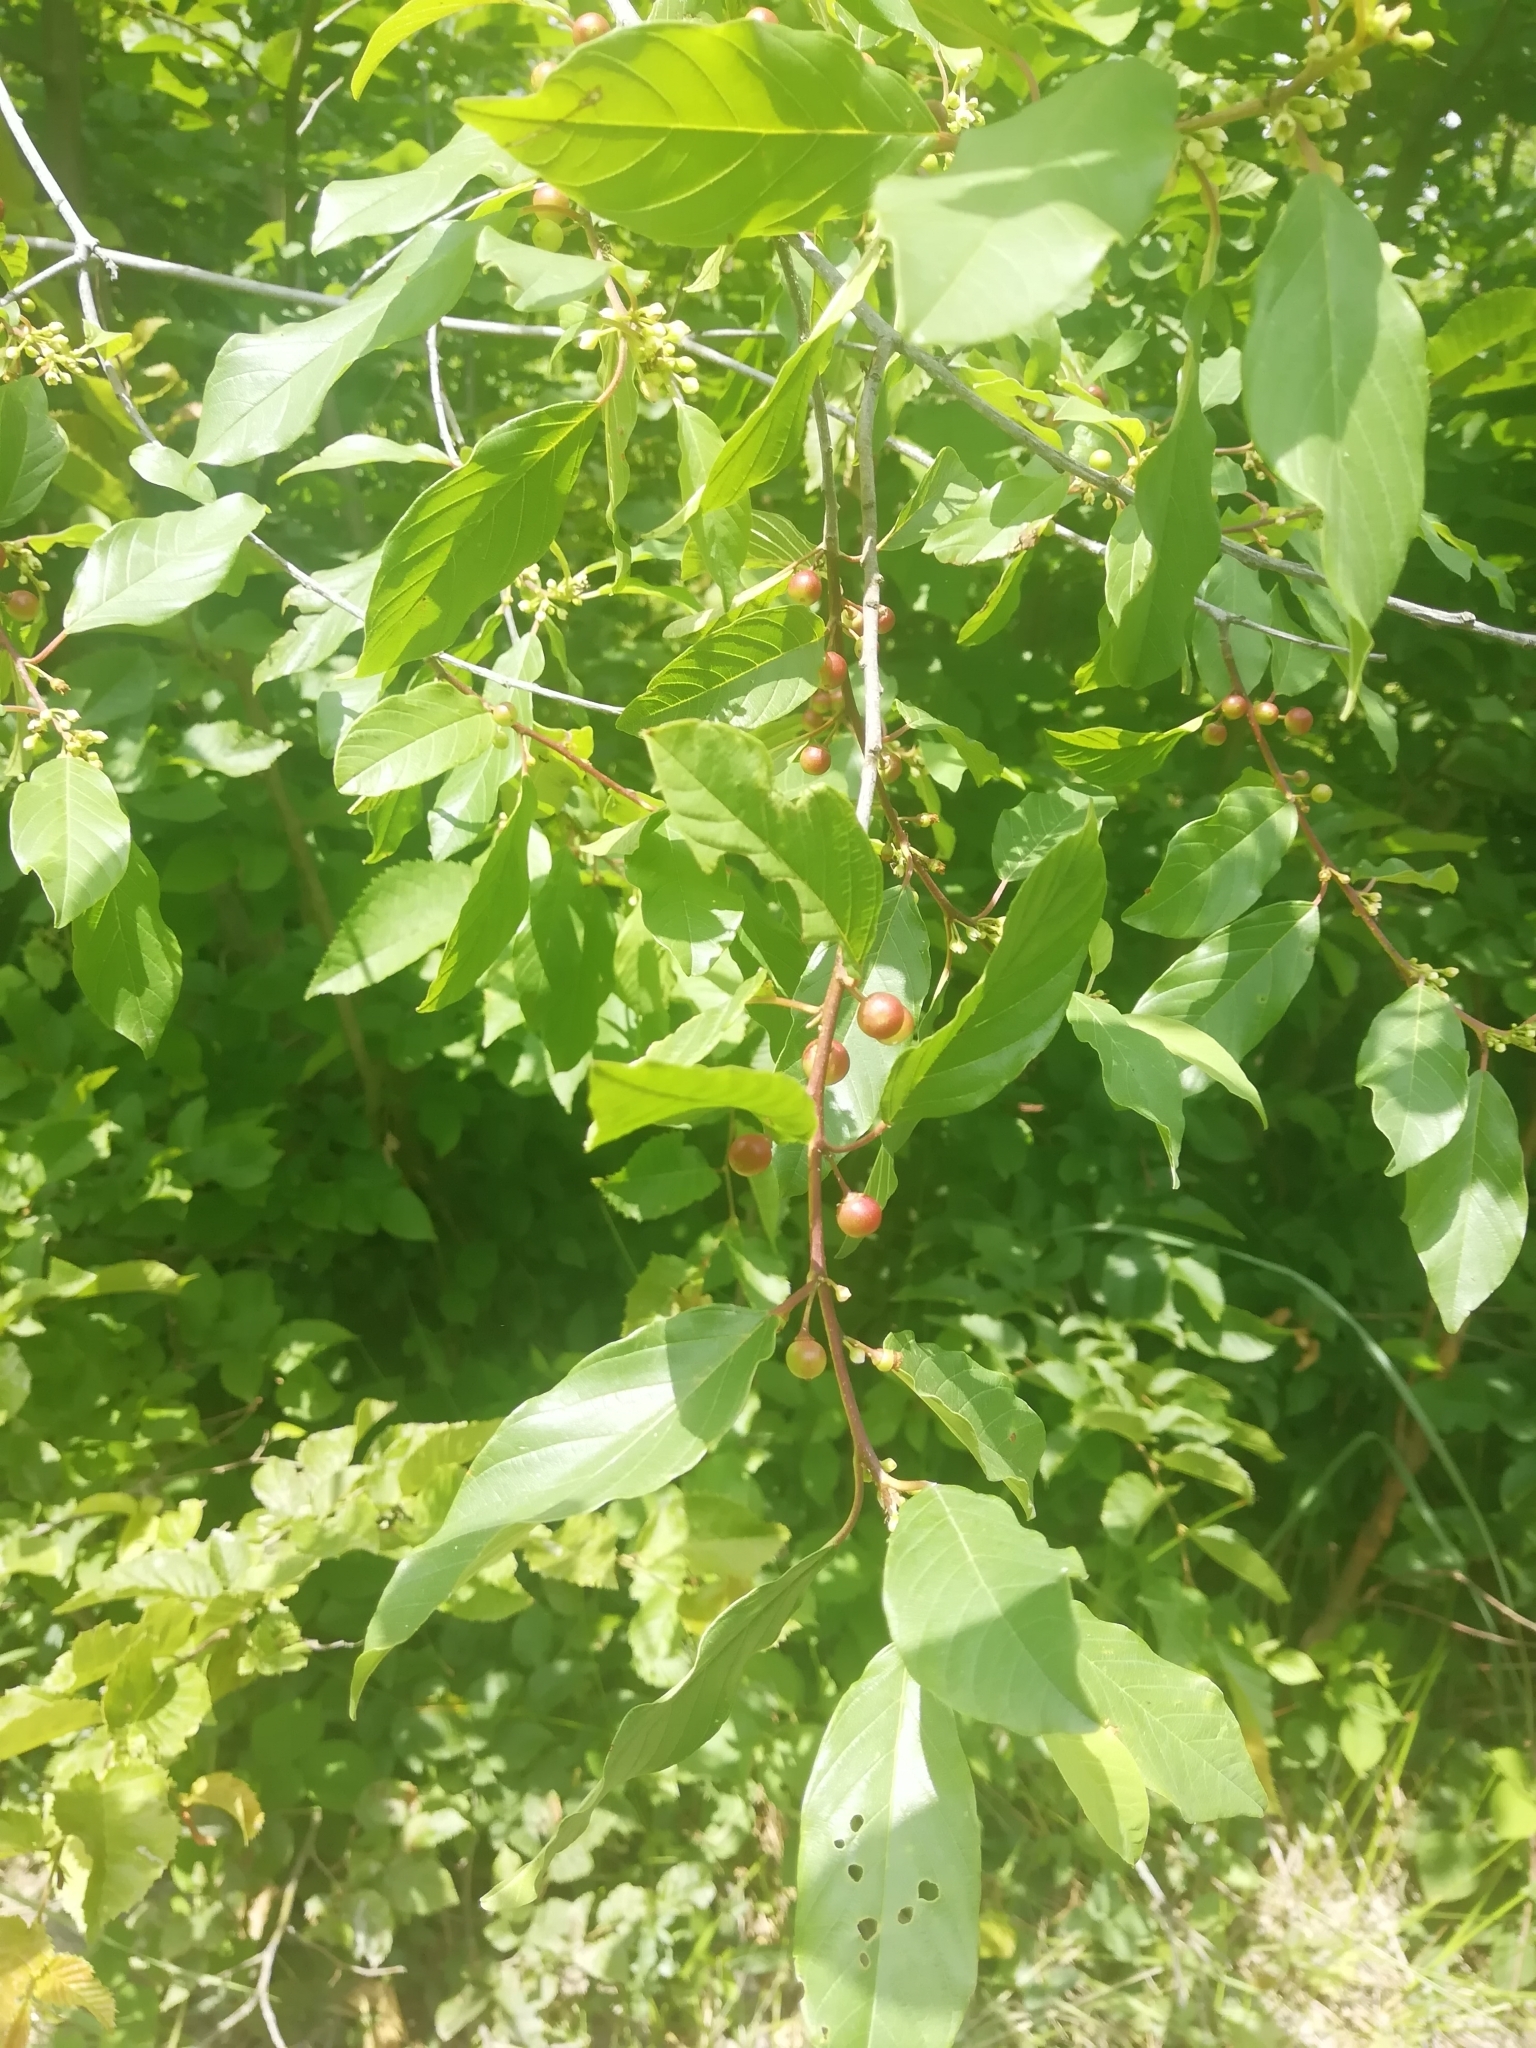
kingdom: Plantae
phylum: Tracheophyta
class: Magnoliopsida
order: Rosales
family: Rhamnaceae
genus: Frangula
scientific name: Frangula alnus
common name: Alder buckthorn
